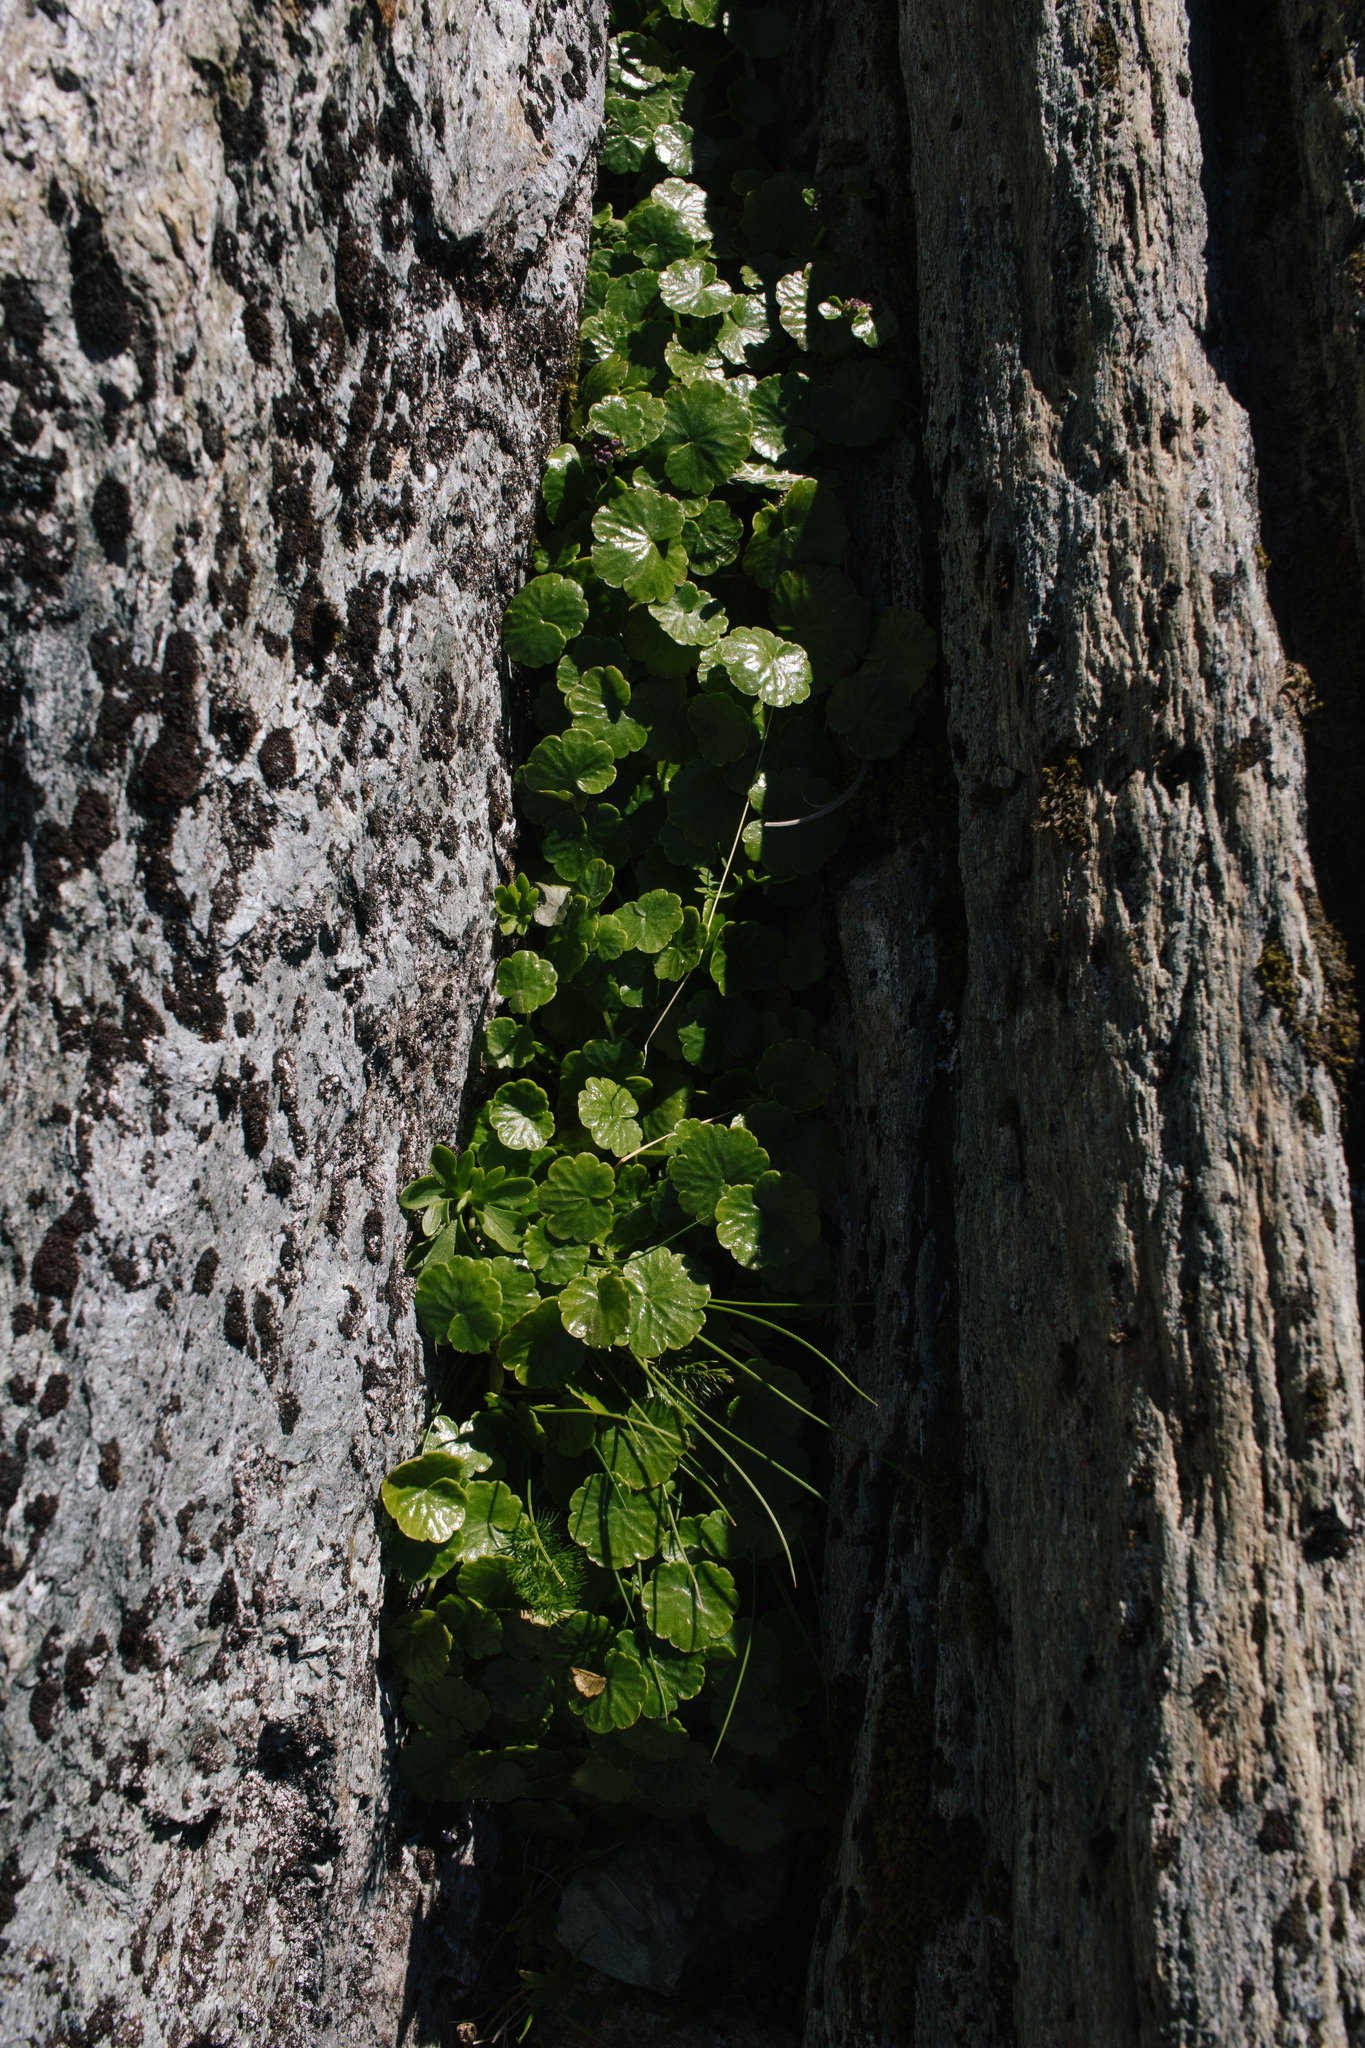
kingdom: Plantae
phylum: Tracheophyta
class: Magnoliopsida
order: Apiales
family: Apiaceae
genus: Azorella
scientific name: Azorella haastii
